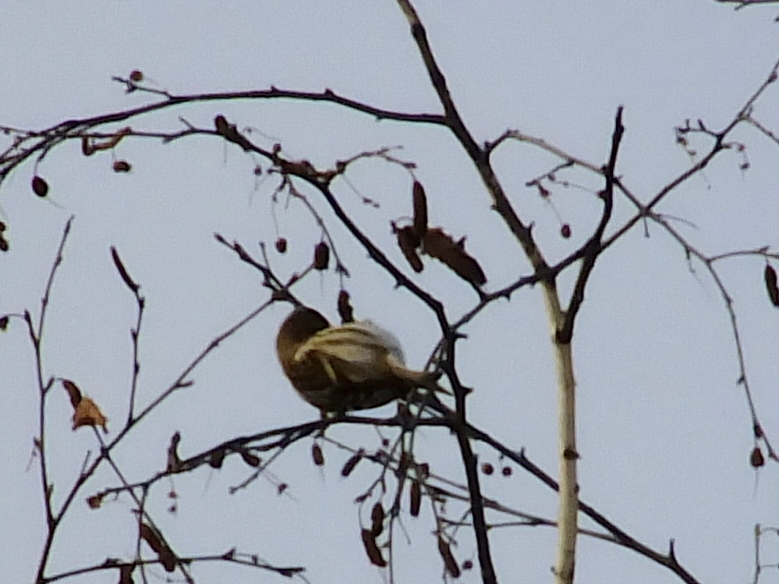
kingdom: Animalia
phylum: Chordata
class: Aves
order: Passeriformes
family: Fringillidae
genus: Acanthis
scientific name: Acanthis flammea
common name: Common redpoll
